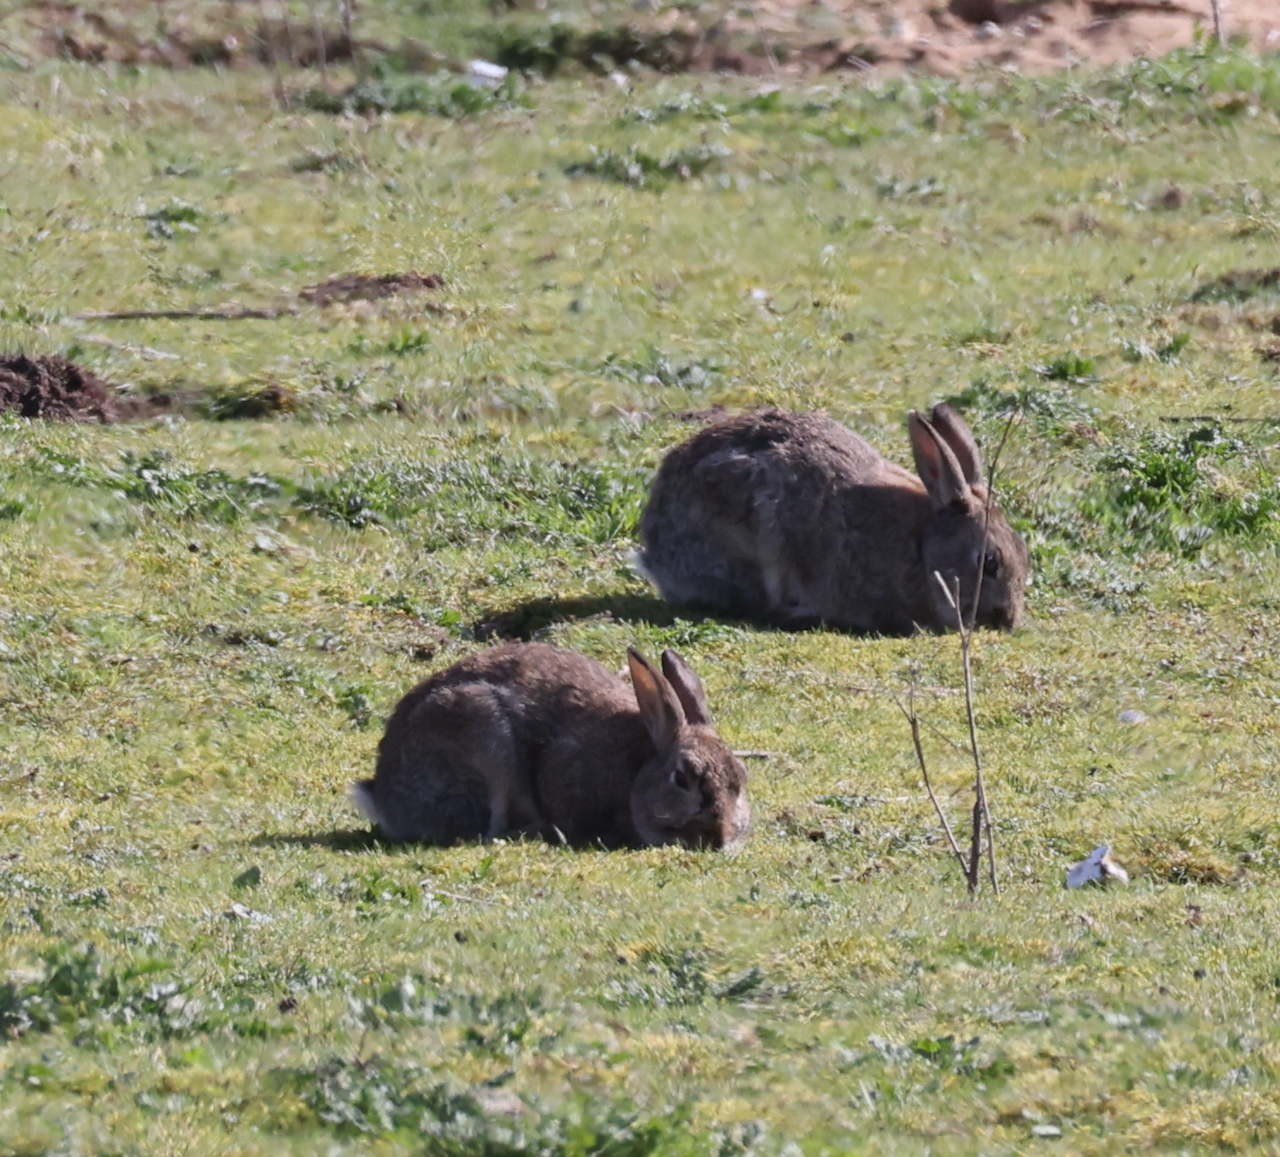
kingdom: Animalia
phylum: Chordata
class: Mammalia
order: Lagomorpha
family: Leporidae
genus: Oryctolagus
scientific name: Oryctolagus cuniculus
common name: European rabbit
